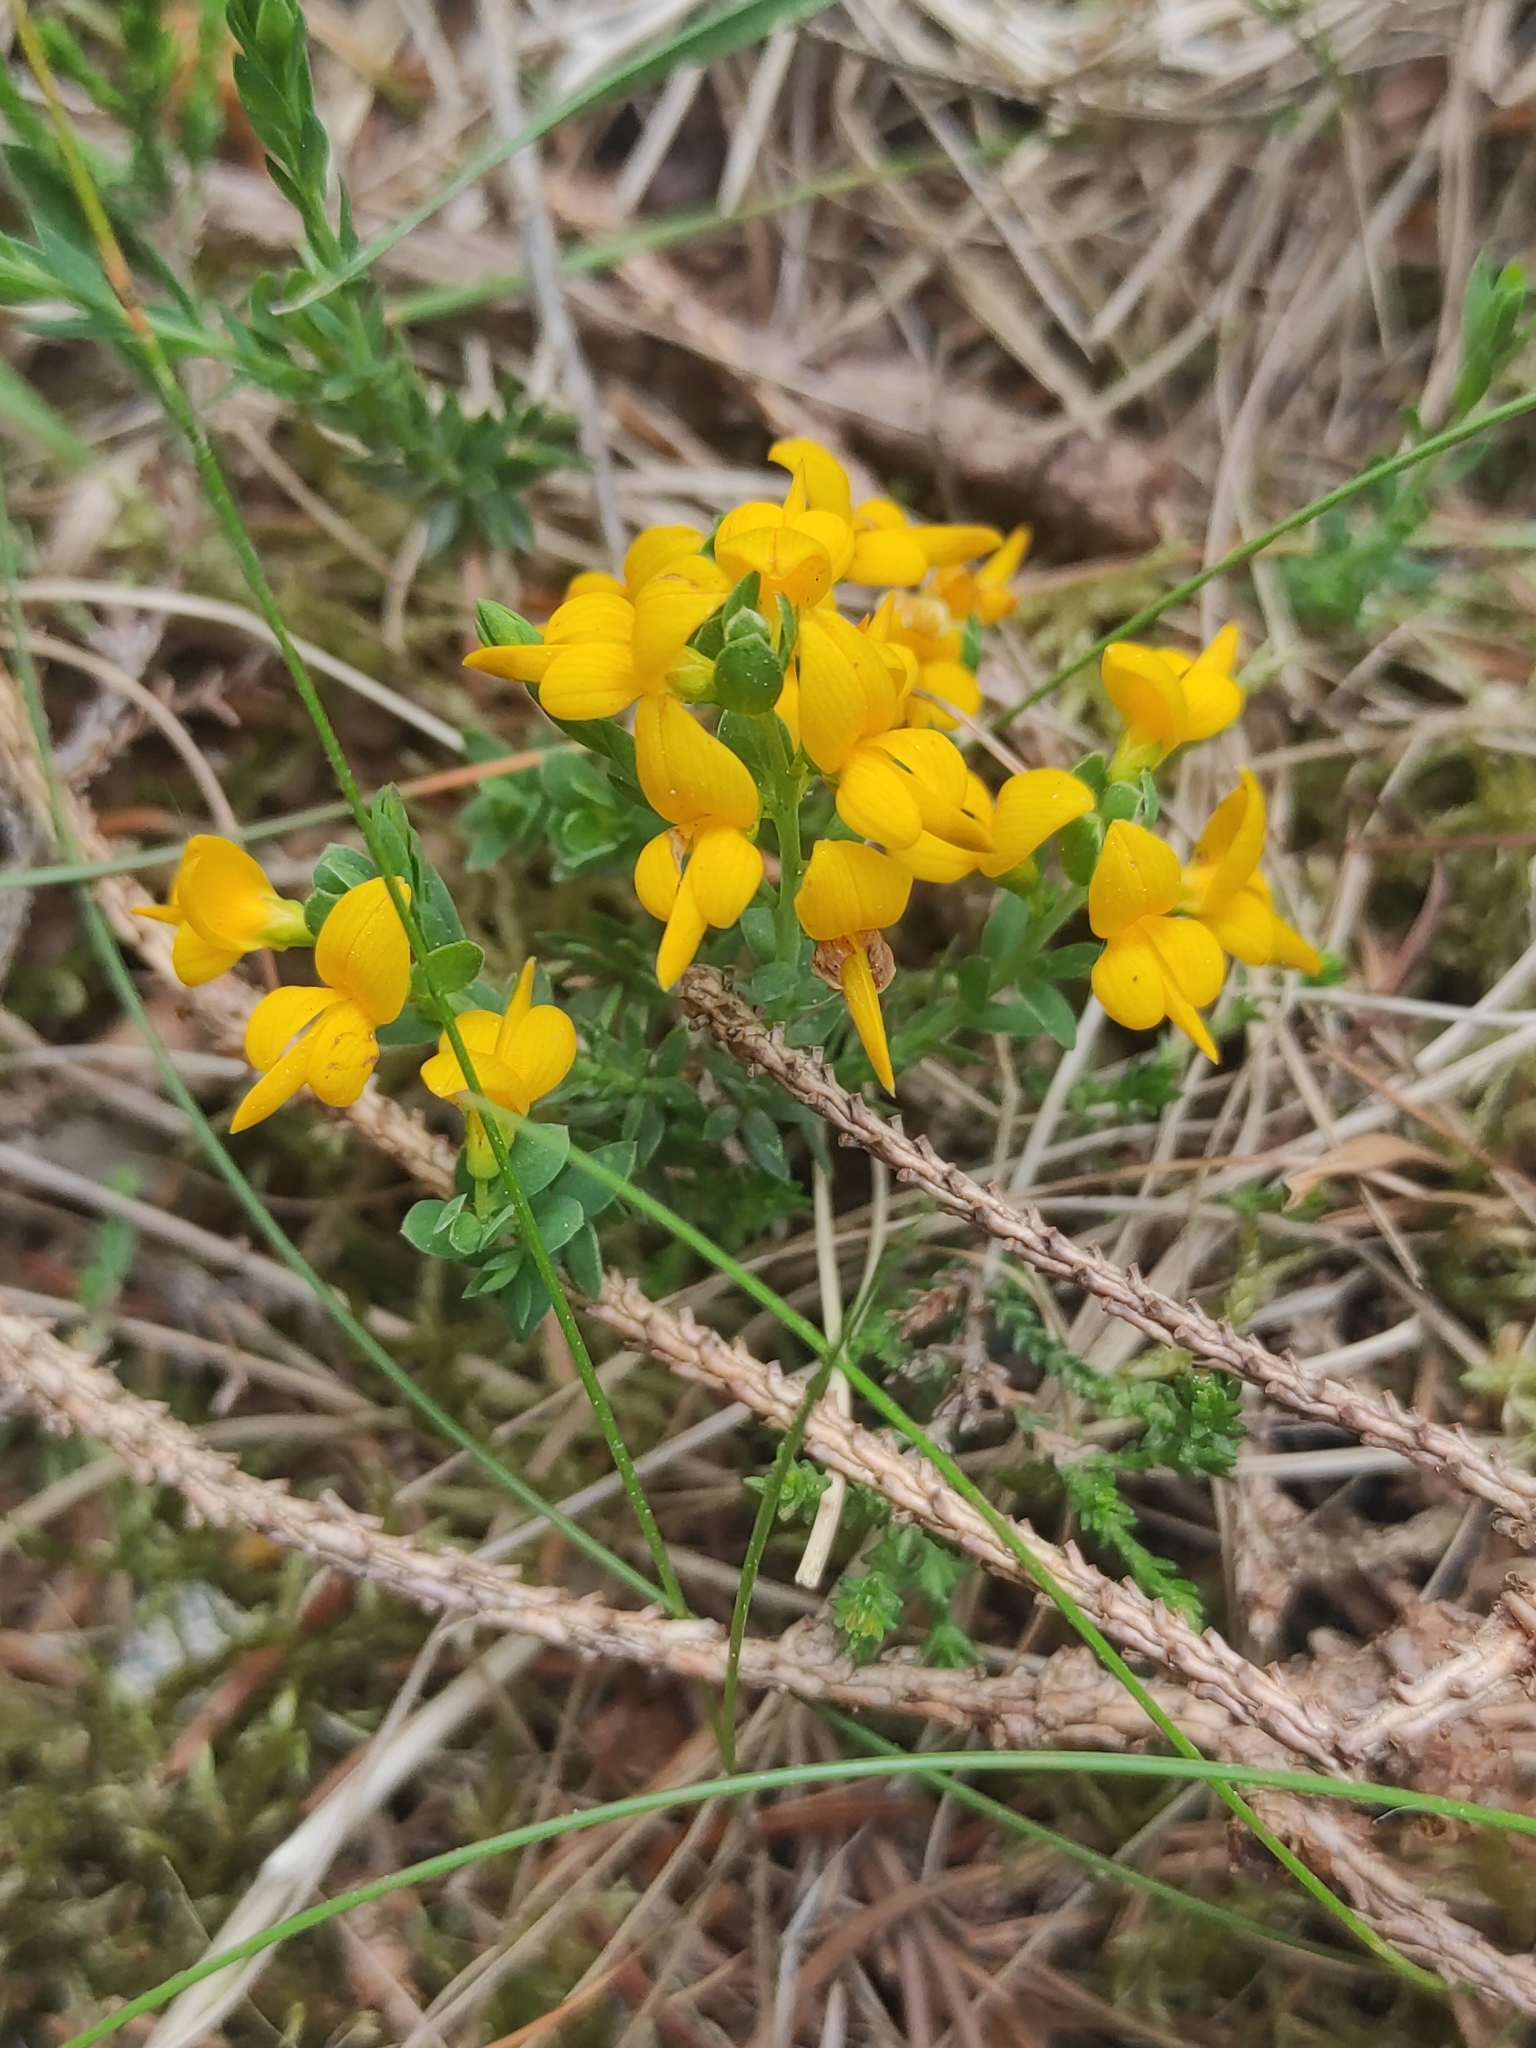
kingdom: Plantae
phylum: Tracheophyta
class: Magnoliopsida
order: Fabales
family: Fabaceae
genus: Genista
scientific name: Genista anglica
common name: Petty whin
